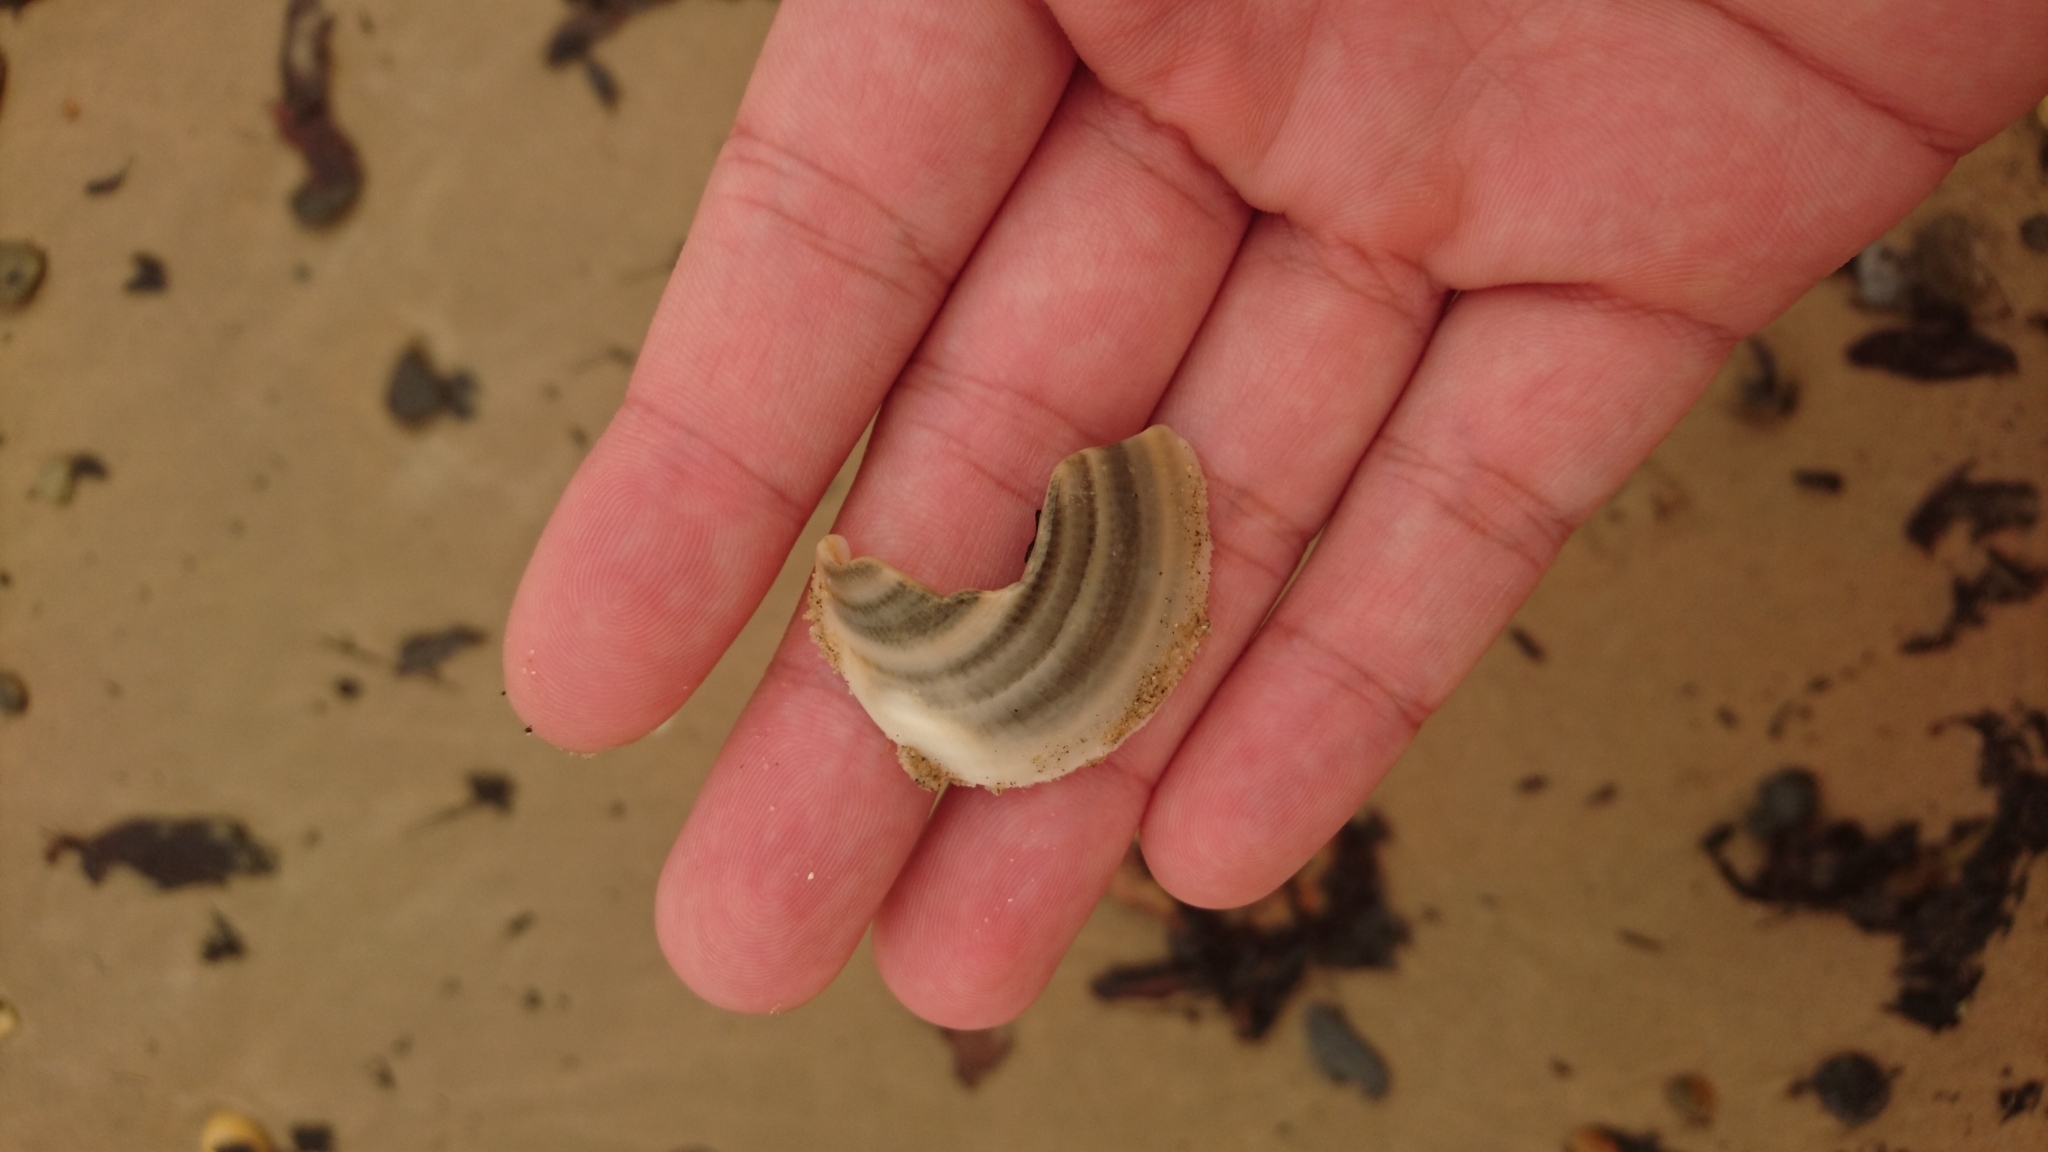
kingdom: Animalia
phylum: Mollusca
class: Bivalvia
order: Arcida
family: Glycymerididae
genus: Glycymeris
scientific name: Glycymeris grayana
